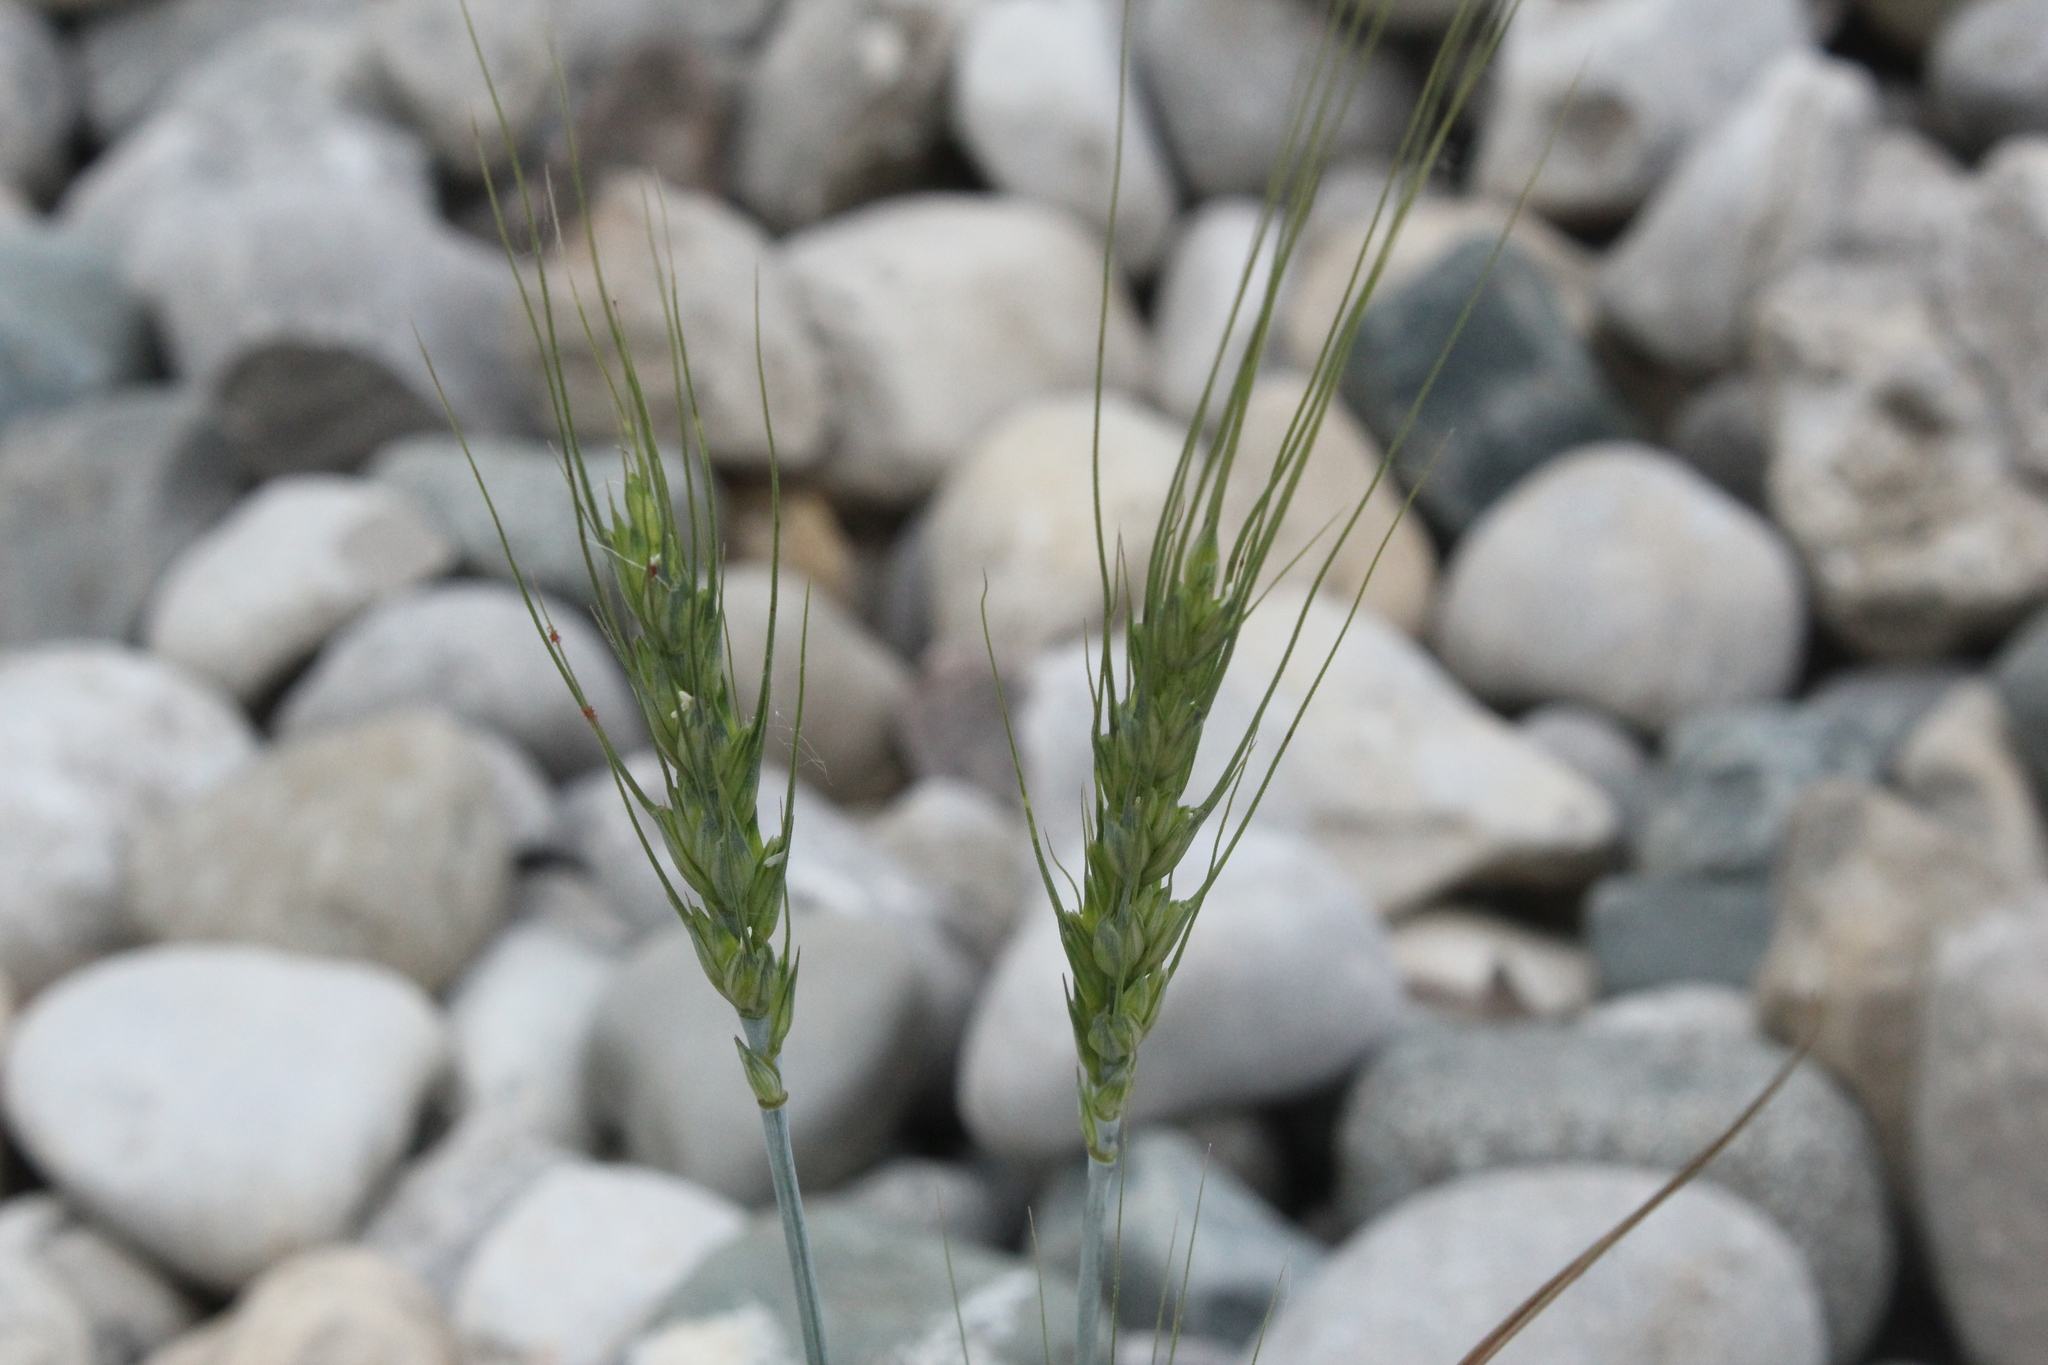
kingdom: Plantae
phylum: Tracheophyta
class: Liliopsida
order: Poales
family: Poaceae
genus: Triticum
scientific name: Triticum aestivum
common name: Common wheat
